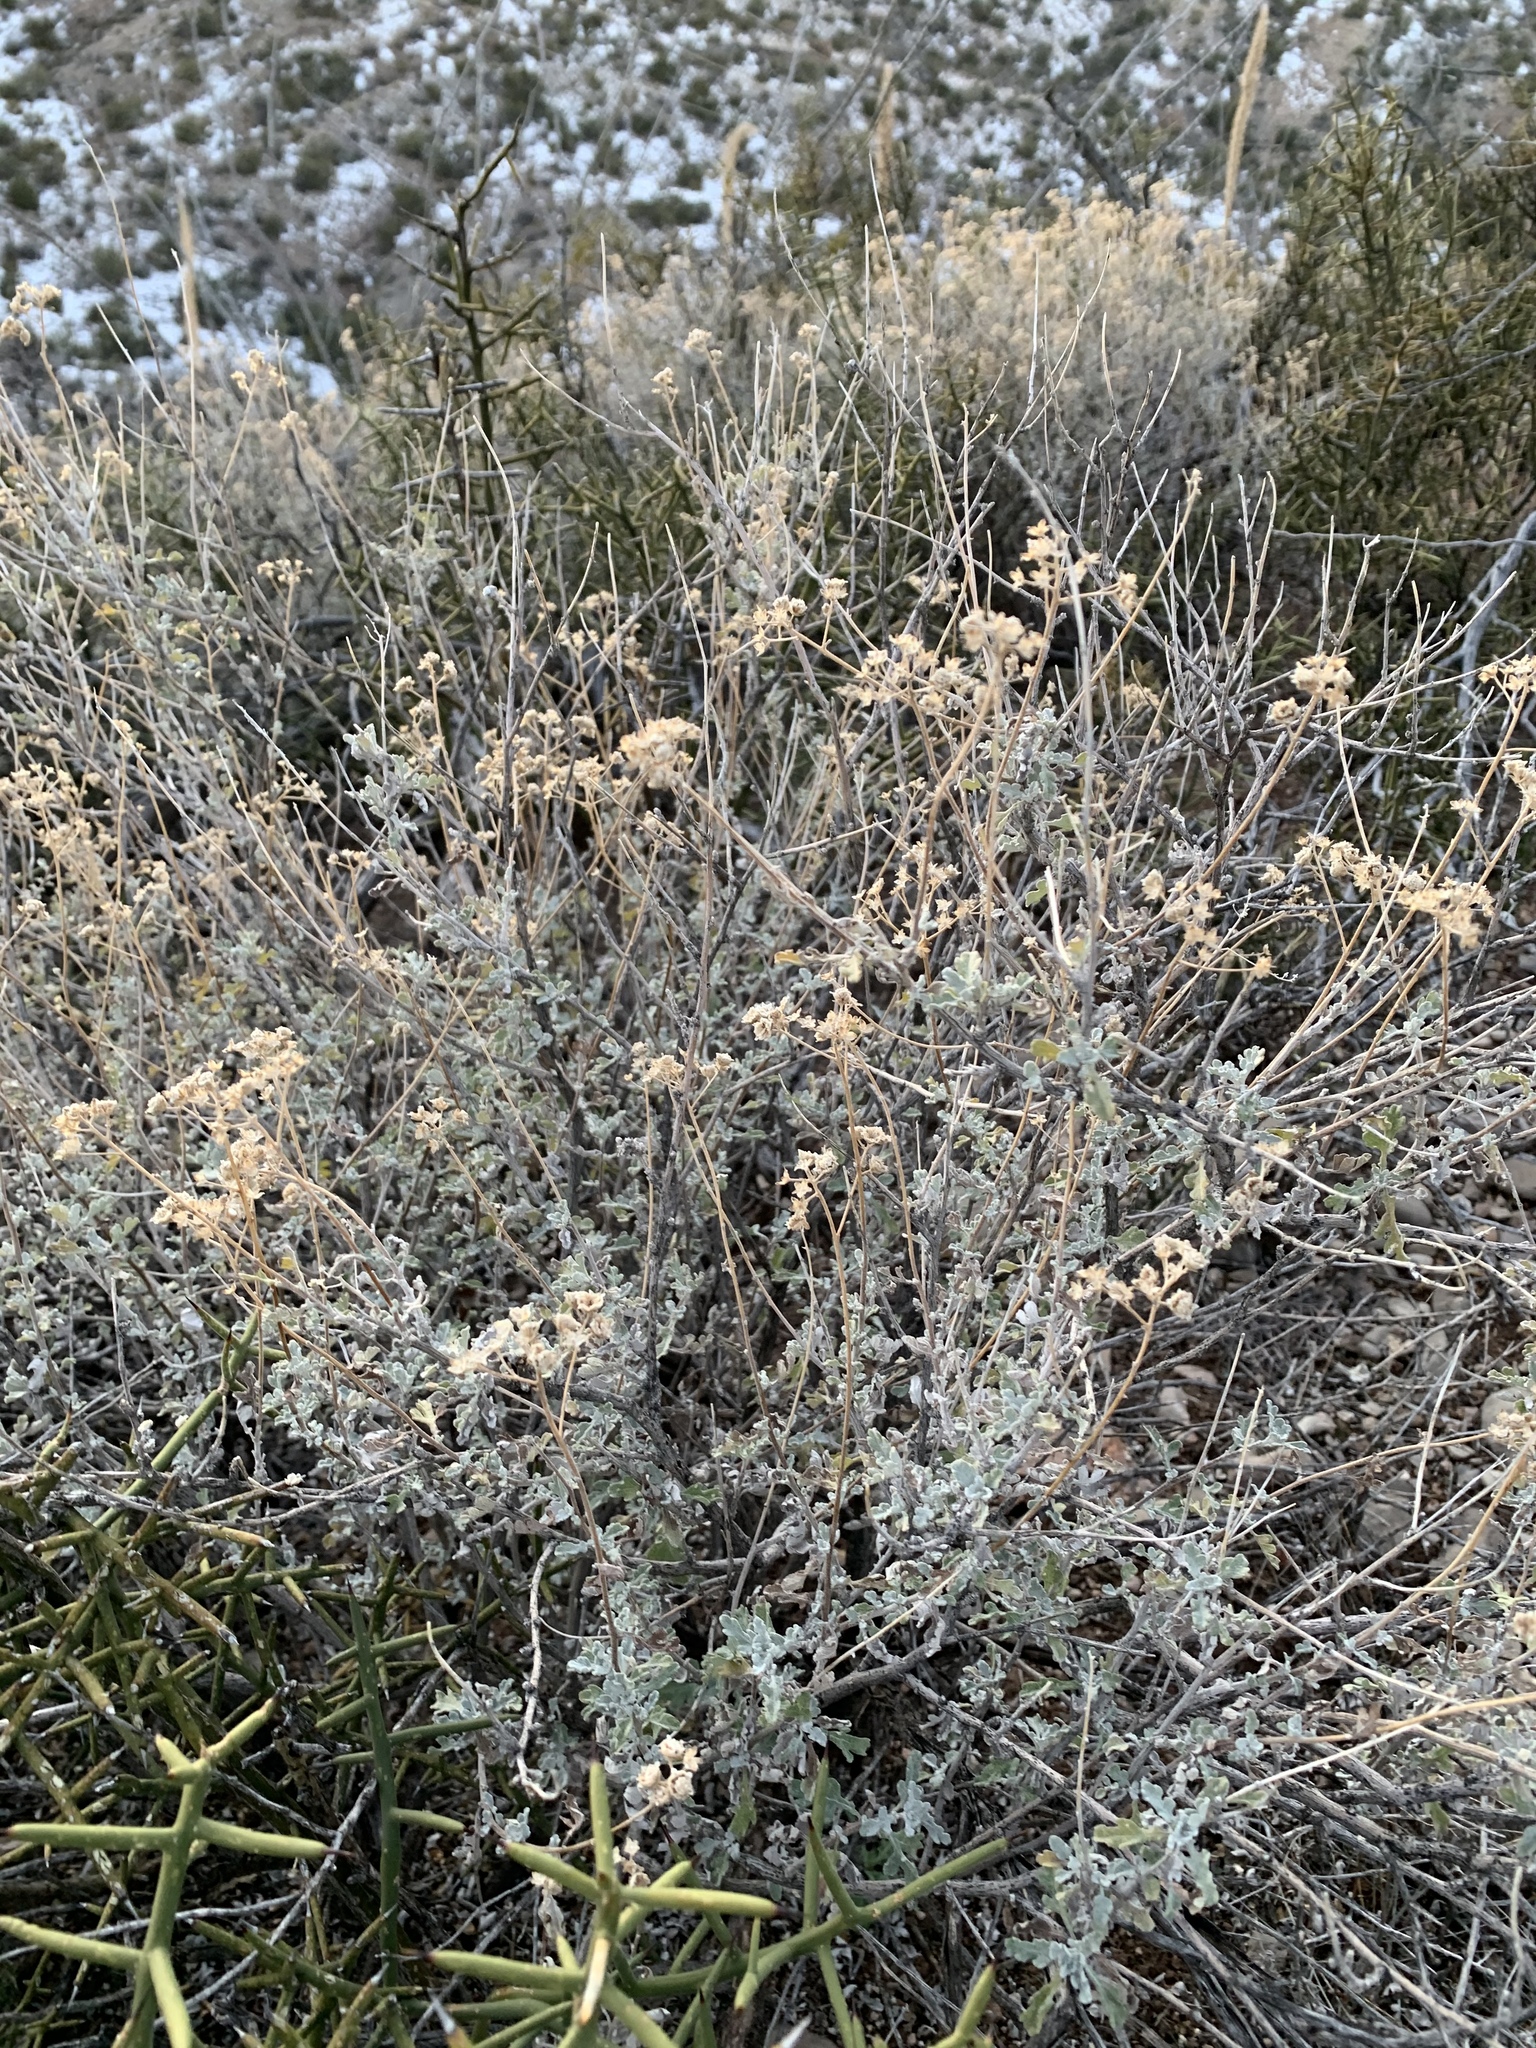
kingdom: Plantae
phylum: Tracheophyta
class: Magnoliopsida
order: Asterales
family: Asteraceae
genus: Parthenium
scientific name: Parthenium incanum
